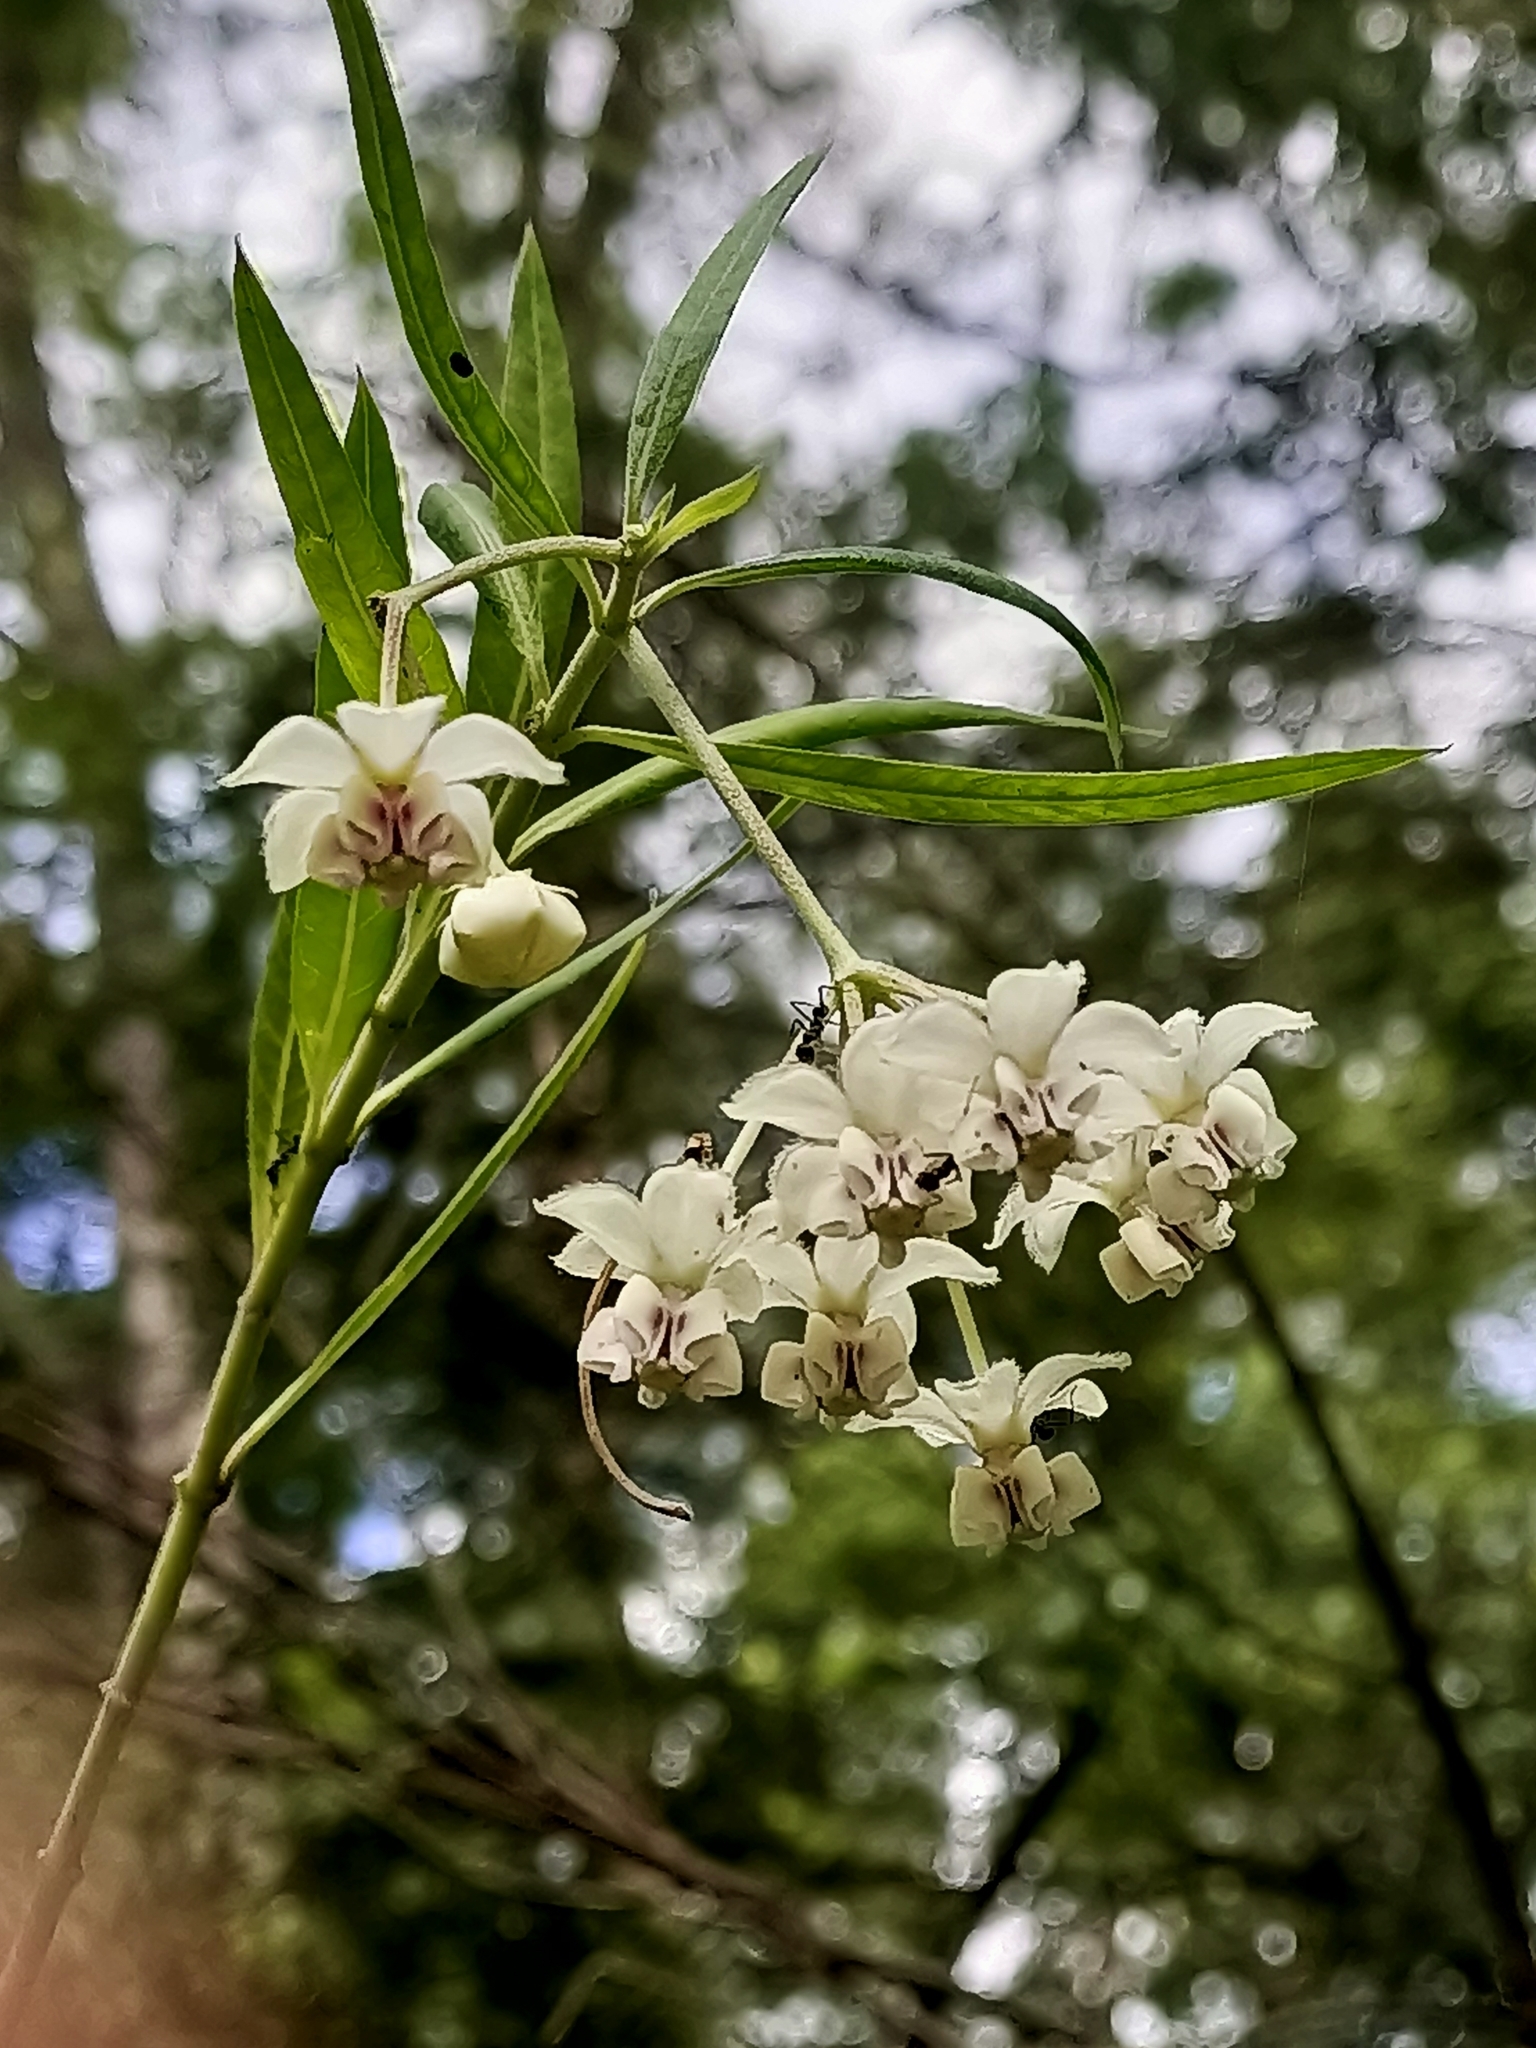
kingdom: Plantae
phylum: Tracheophyta
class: Magnoliopsida
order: Gentianales
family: Apocynaceae
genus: Gomphocarpus
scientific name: Gomphocarpus physocarpus
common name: Balloon cotton bush
